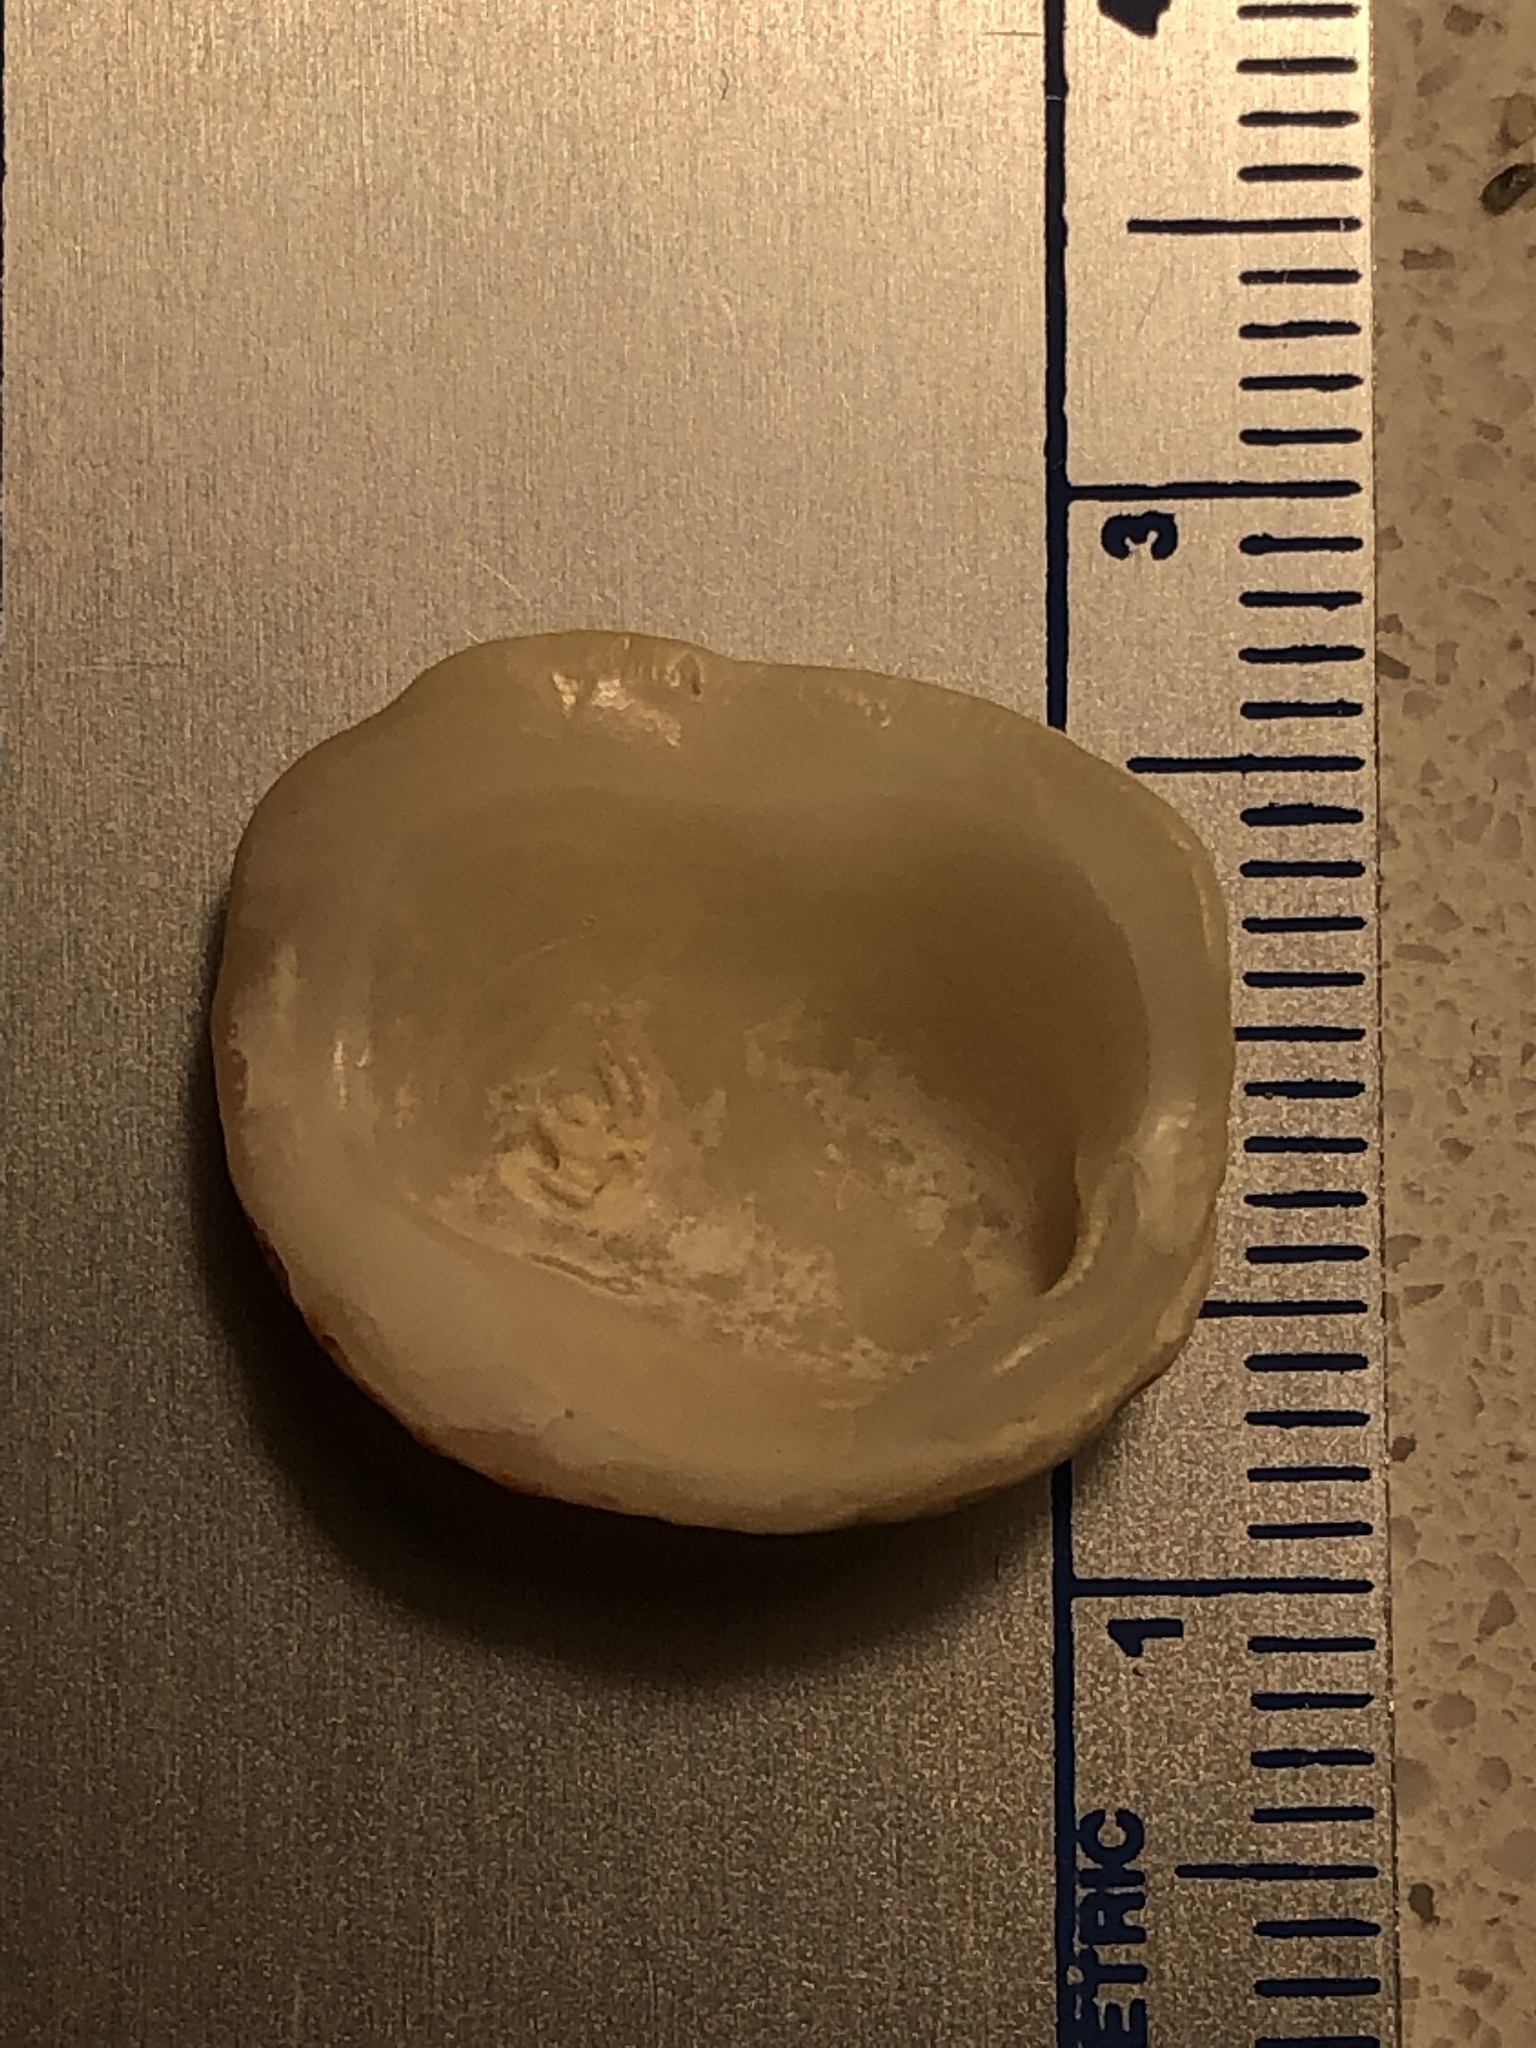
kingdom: Animalia
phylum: Mollusca
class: Bivalvia
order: Venerida
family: Chamidae
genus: Chama
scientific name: Chama congregata
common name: Corrugate jewelbox
